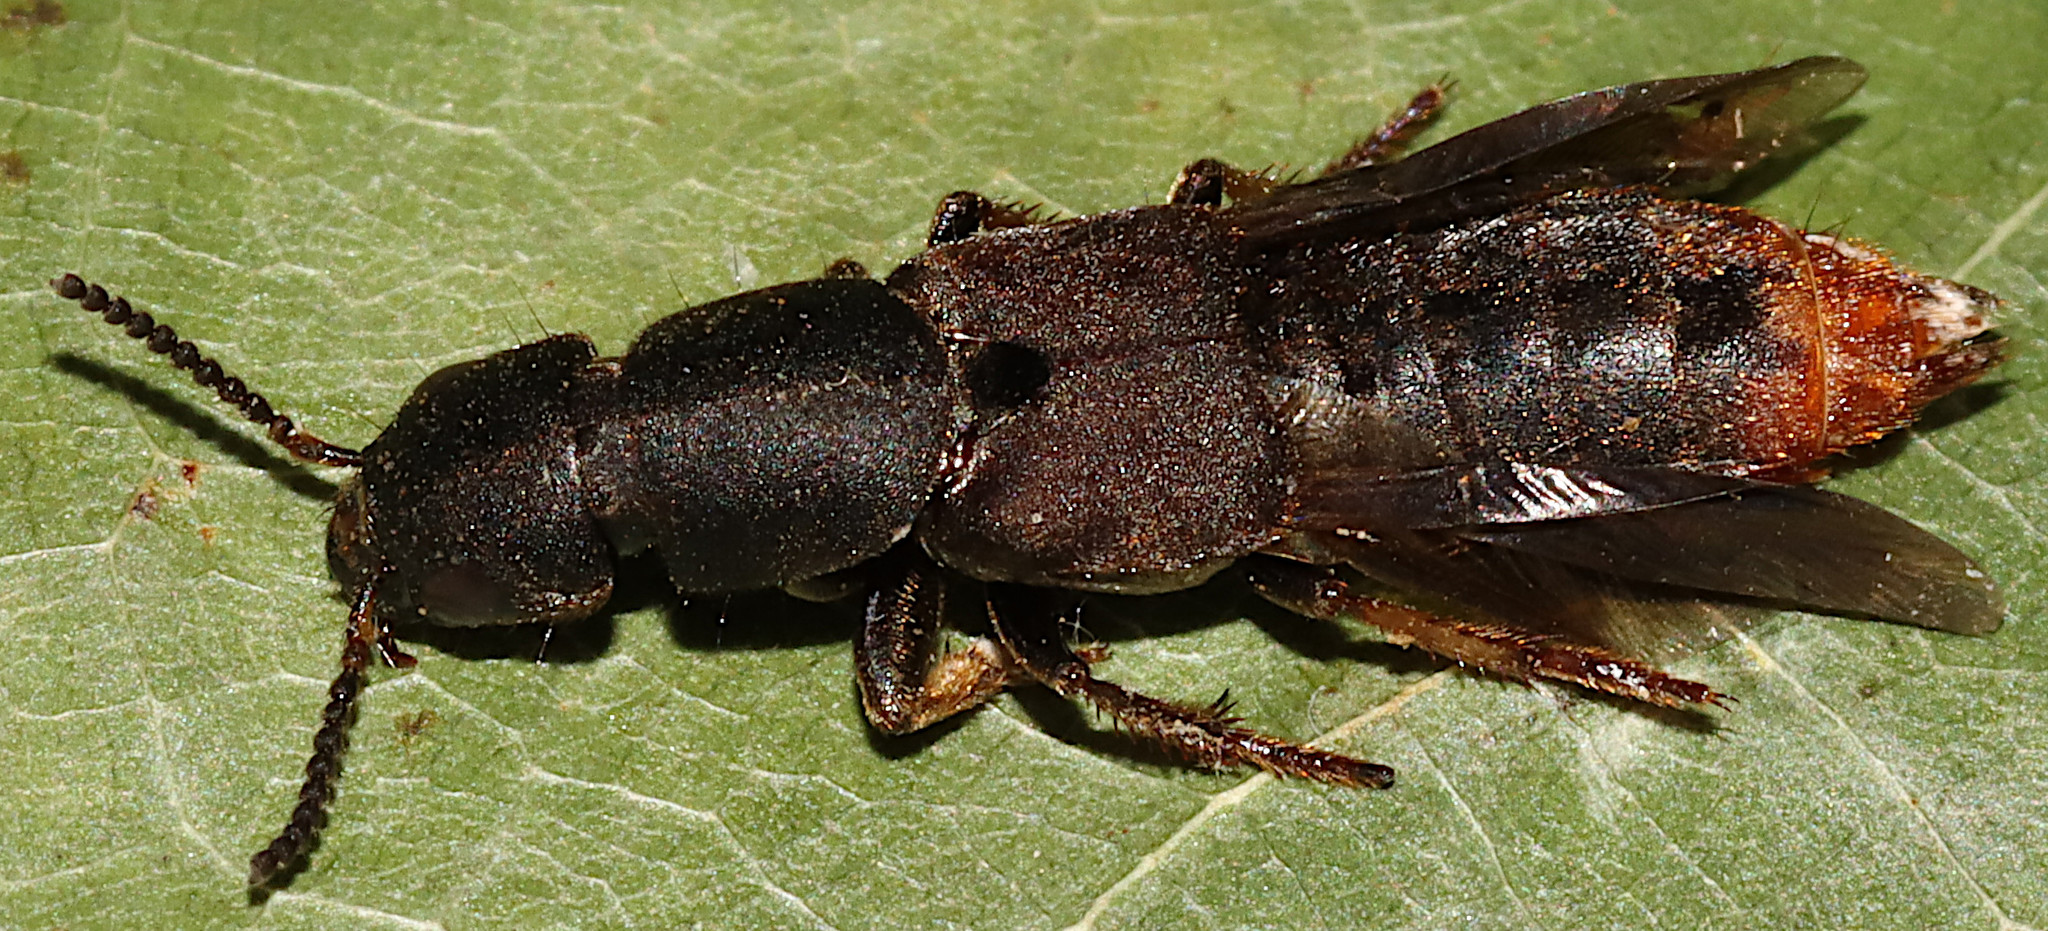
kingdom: Animalia
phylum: Arthropoda
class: Insecta
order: Coleoptera
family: Staphylinidae
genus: Platydracus
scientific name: Platydracus mysticus
